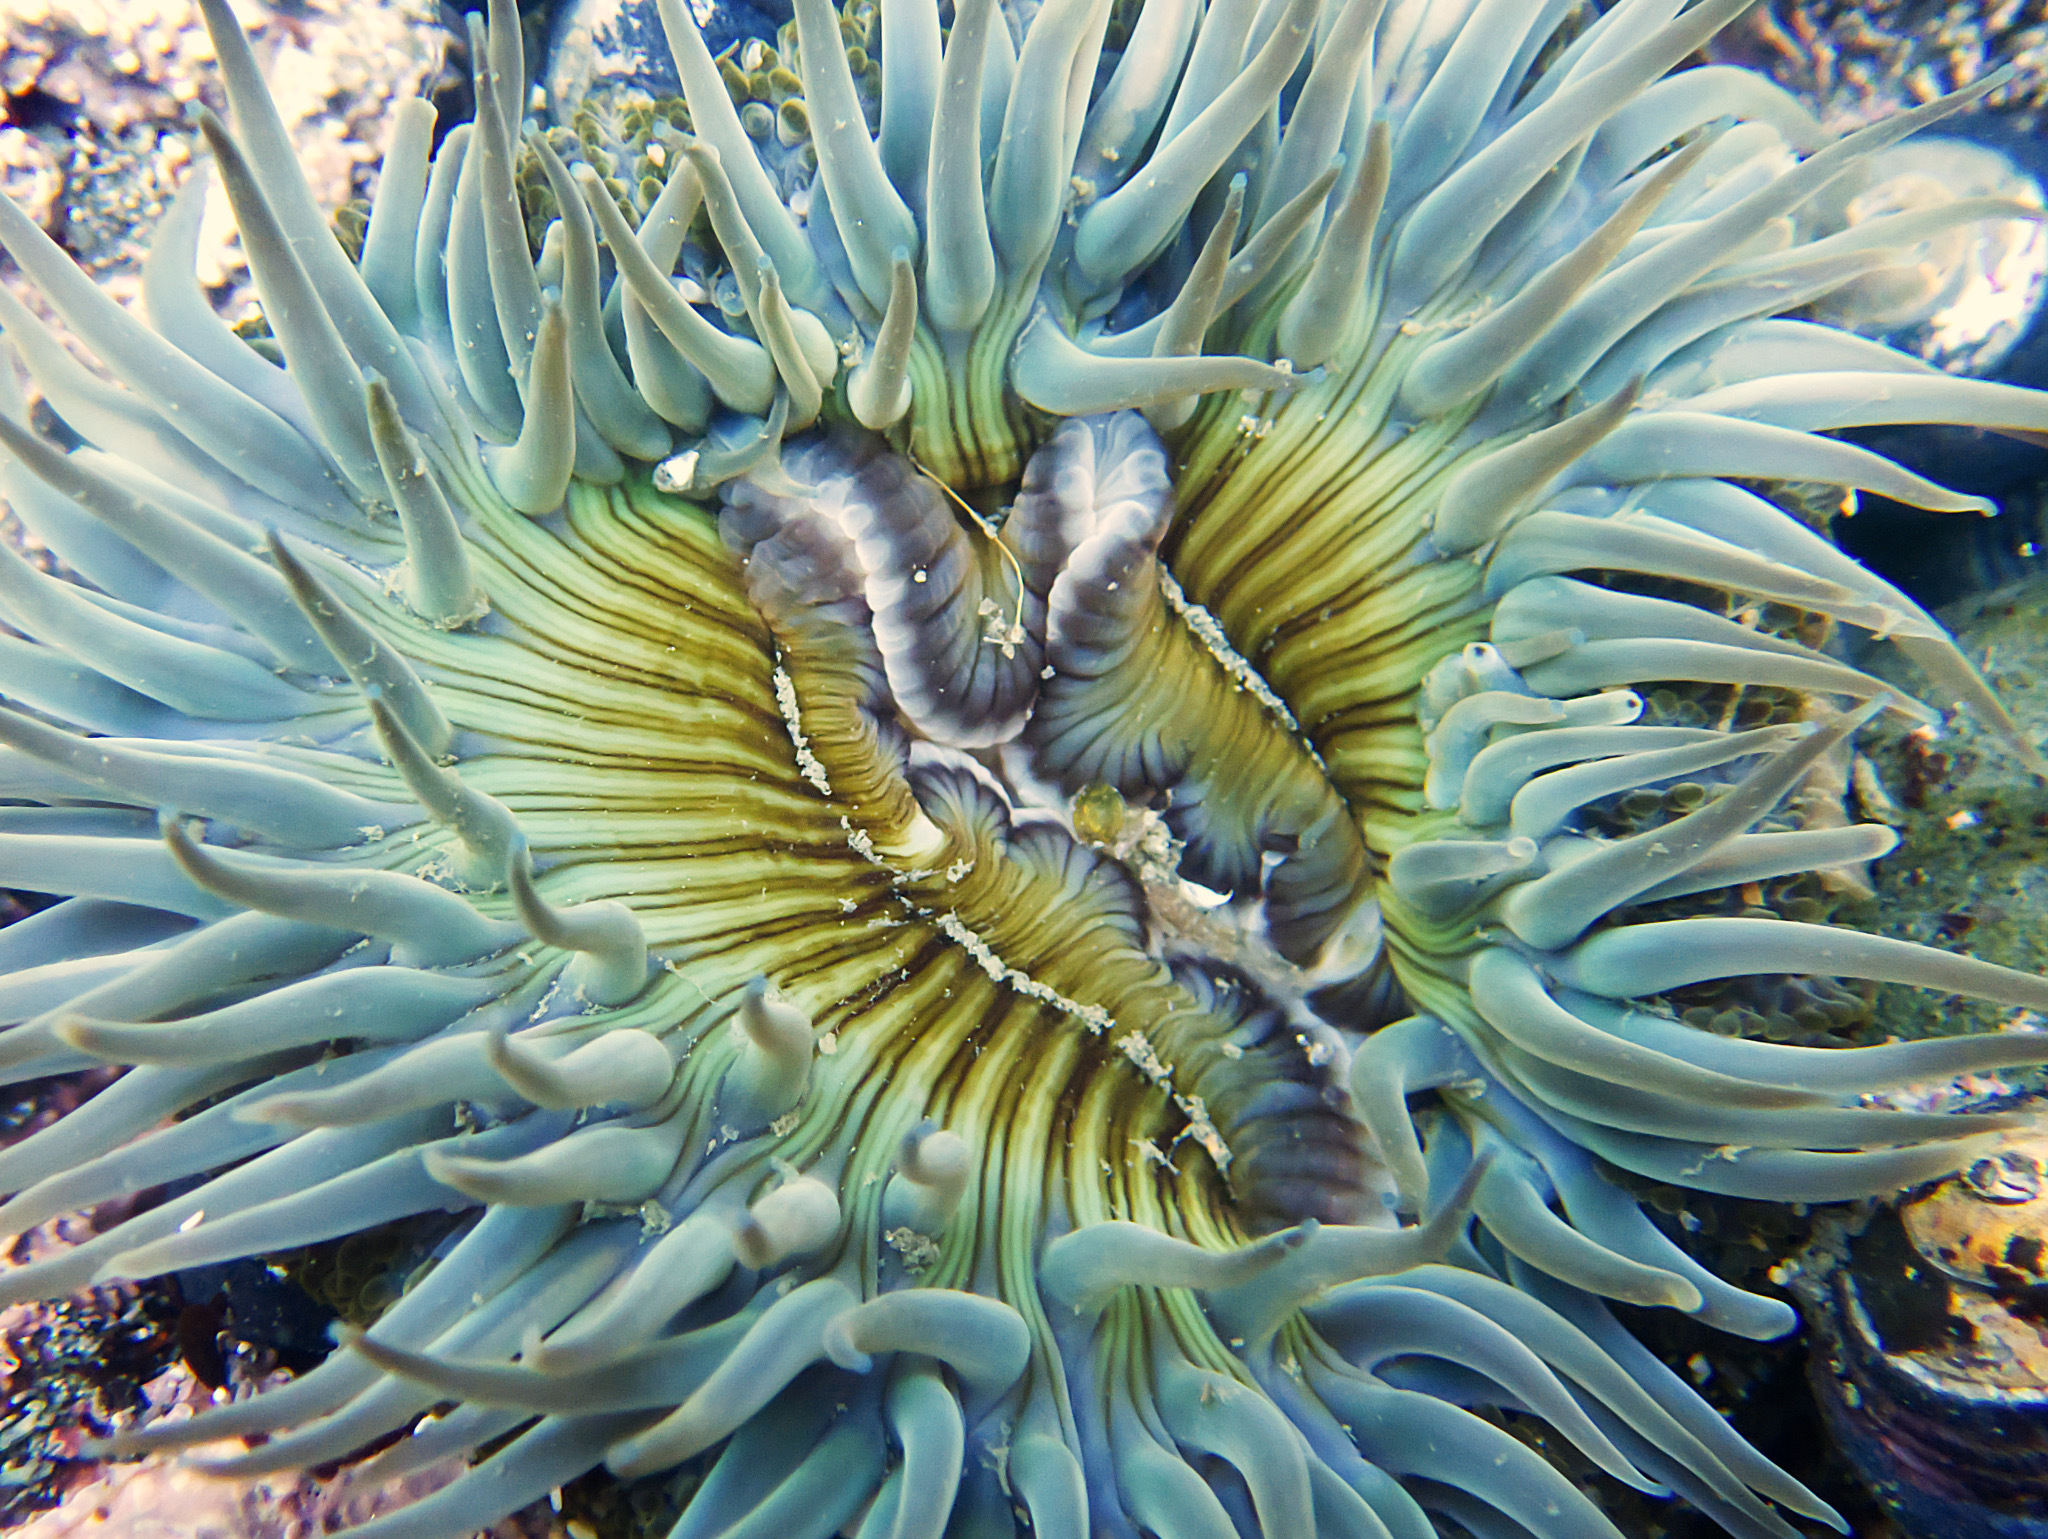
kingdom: Animalia
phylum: Cnidaria
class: Anthozoa
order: Actiniaria
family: Actiniidae
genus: Anthopleura
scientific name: Anthopleura sola
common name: Sun anemone
